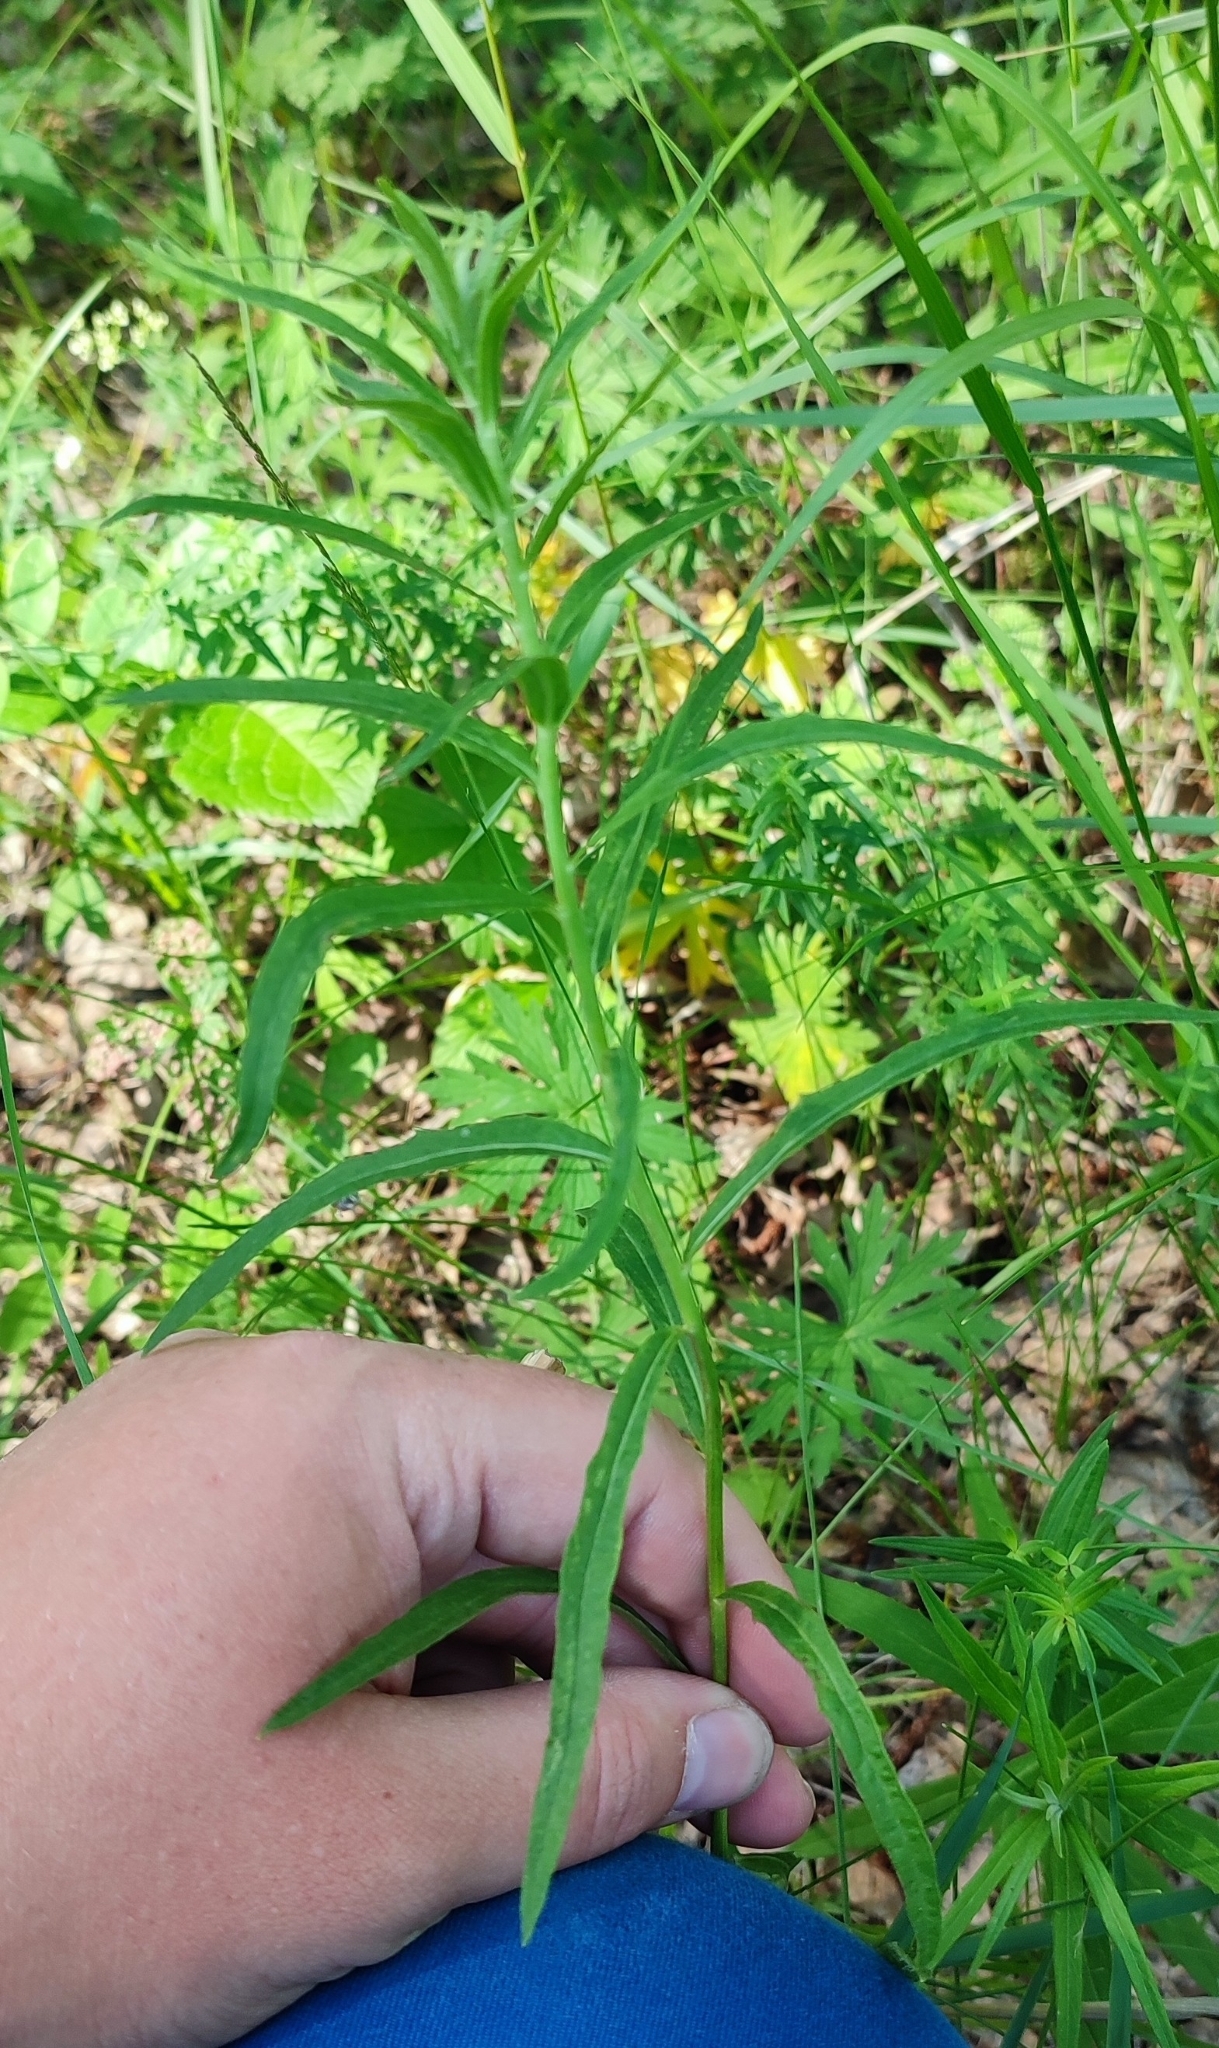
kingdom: Plantae
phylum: Tracheophyta
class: Magnoliopsida
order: Asterales
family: Asteraceae
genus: Hieracium
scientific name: Hieracium umbellatum
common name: Northern hawkweed
